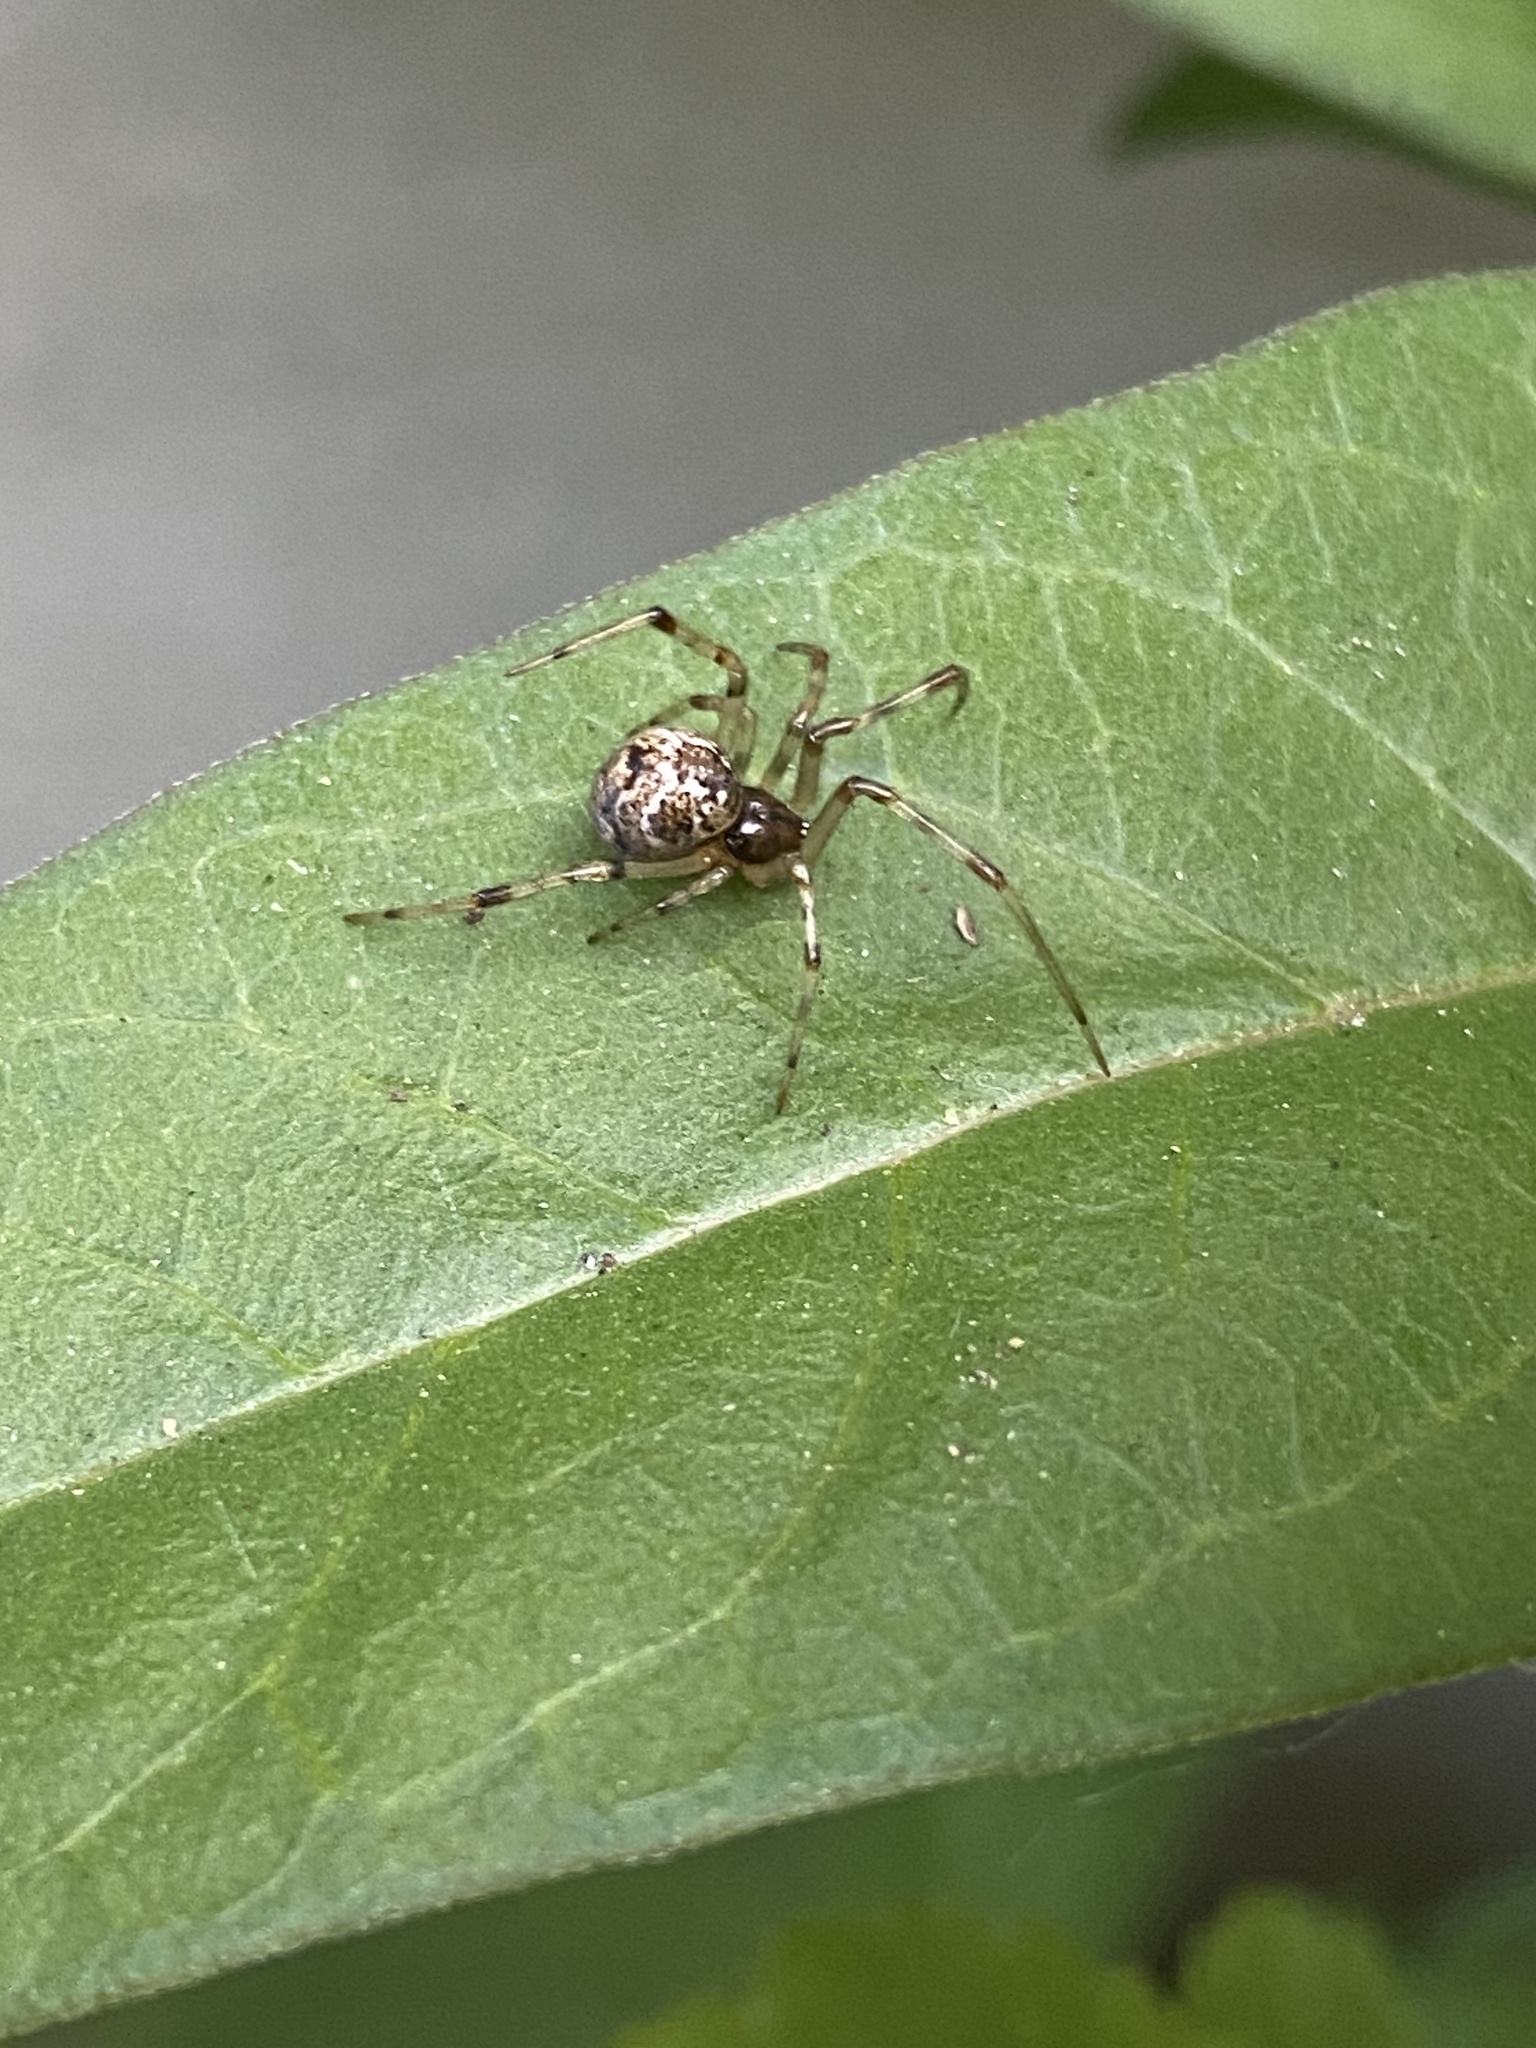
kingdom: Animalia
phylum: Arthropoda
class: Arachnida
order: Araneae
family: Theridiidae
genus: Parasteatoda
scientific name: Parasteatoda tepidariorum
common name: Common house spider
